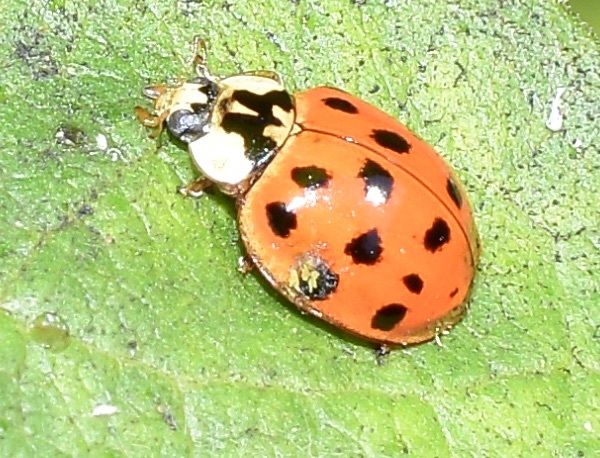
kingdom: Animalia
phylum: Arthropoda
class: Insecta
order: Coleoptera
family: Coccinellidae
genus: Harmonia
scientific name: Harmonia axyridis
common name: Harlequin ladybird
